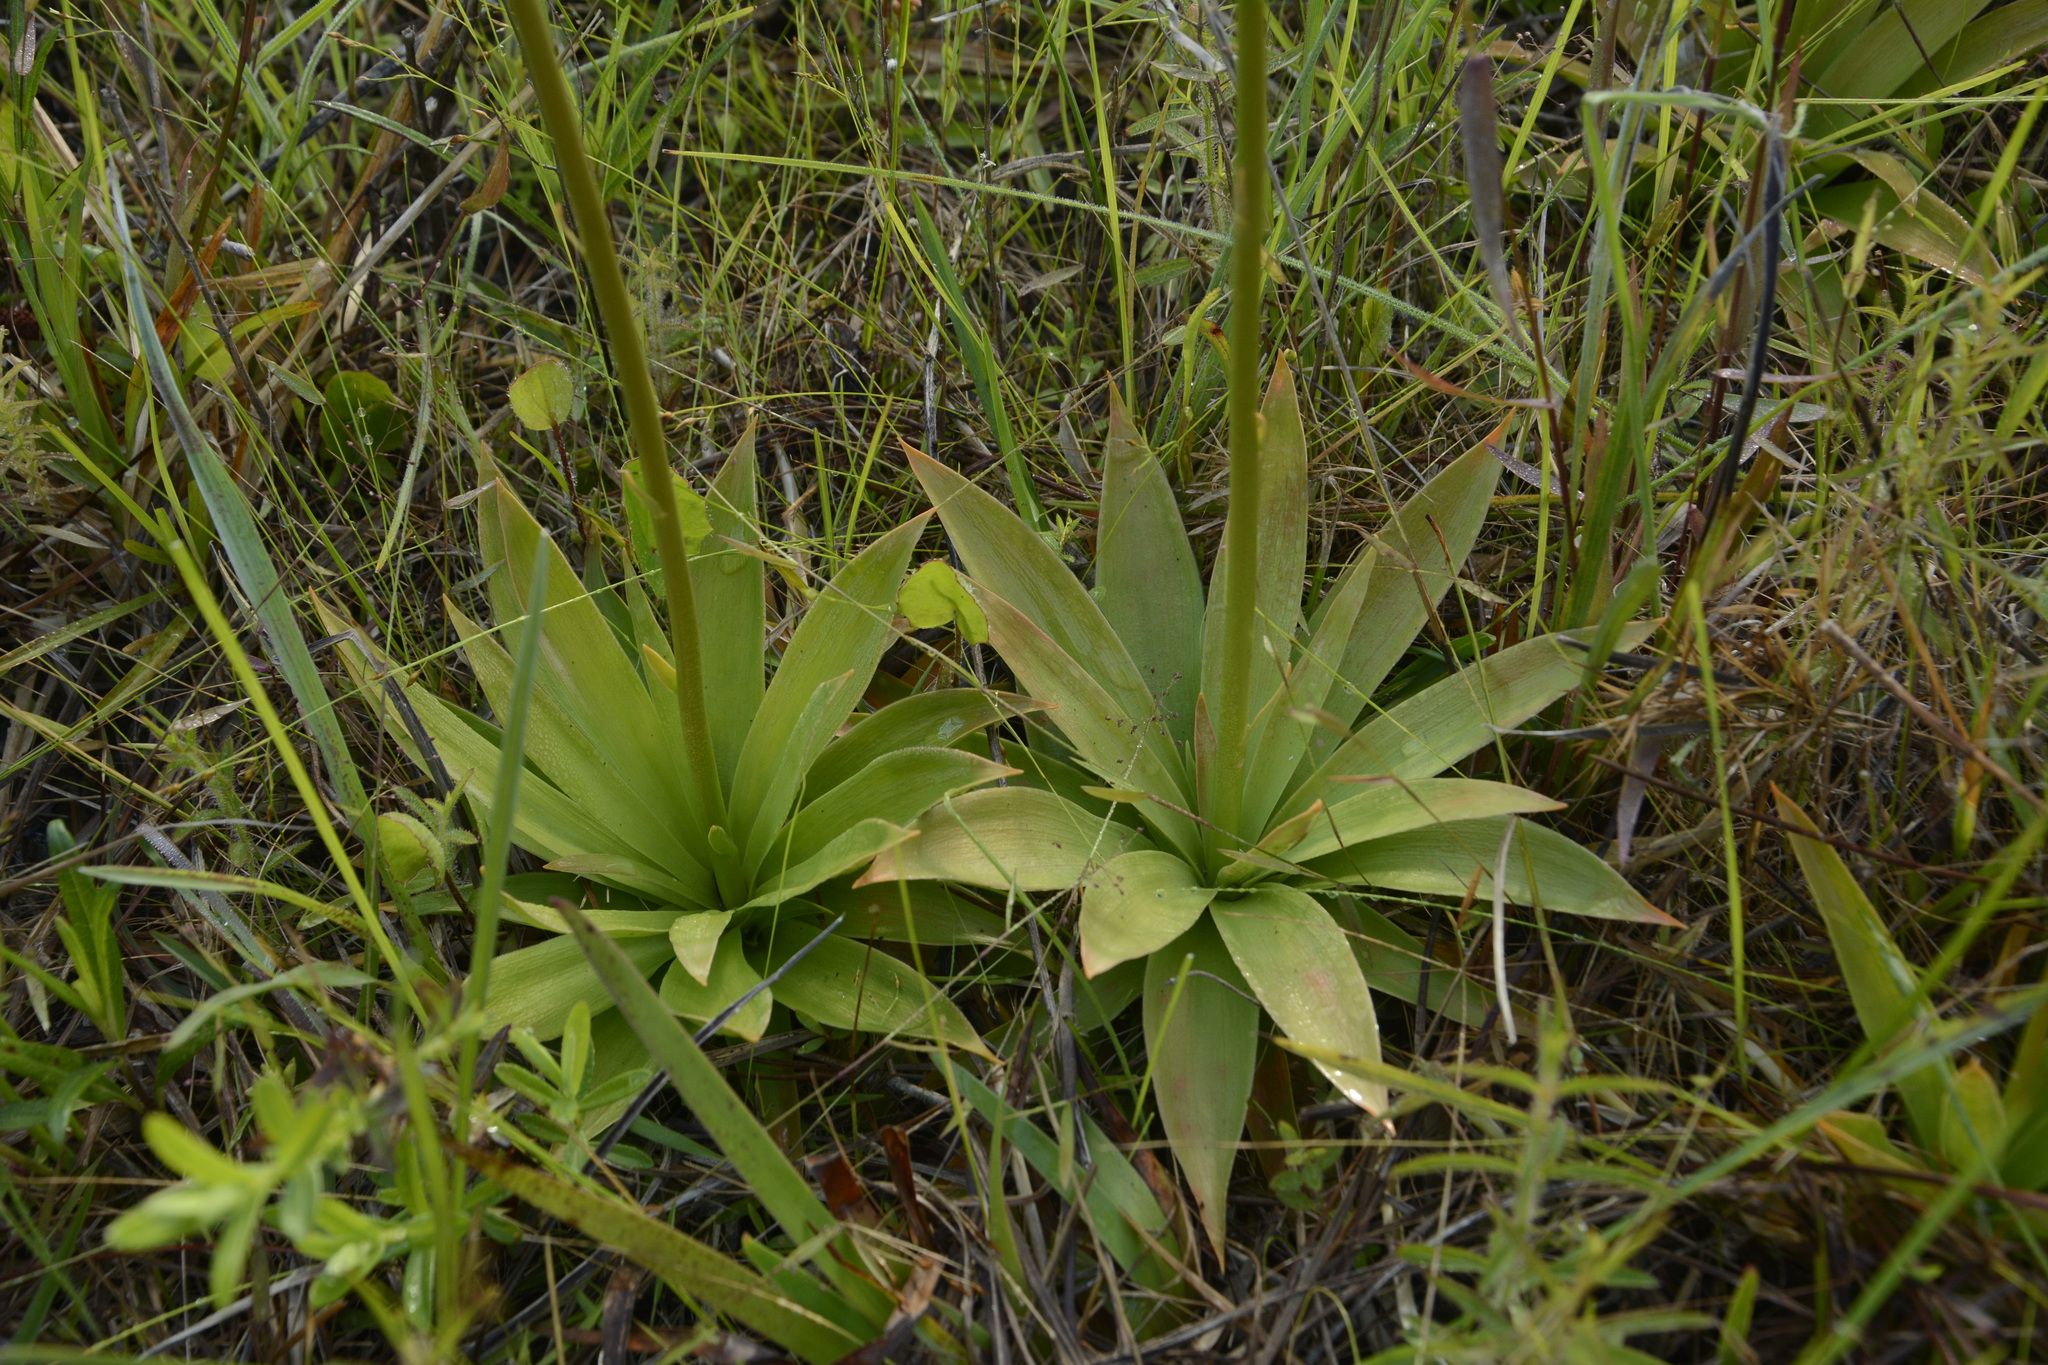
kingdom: Plantae
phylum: Tracheophyta
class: Liliopsida
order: Dioscoreales
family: Nartheciaceae
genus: Aletris
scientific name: Aletris lutea
